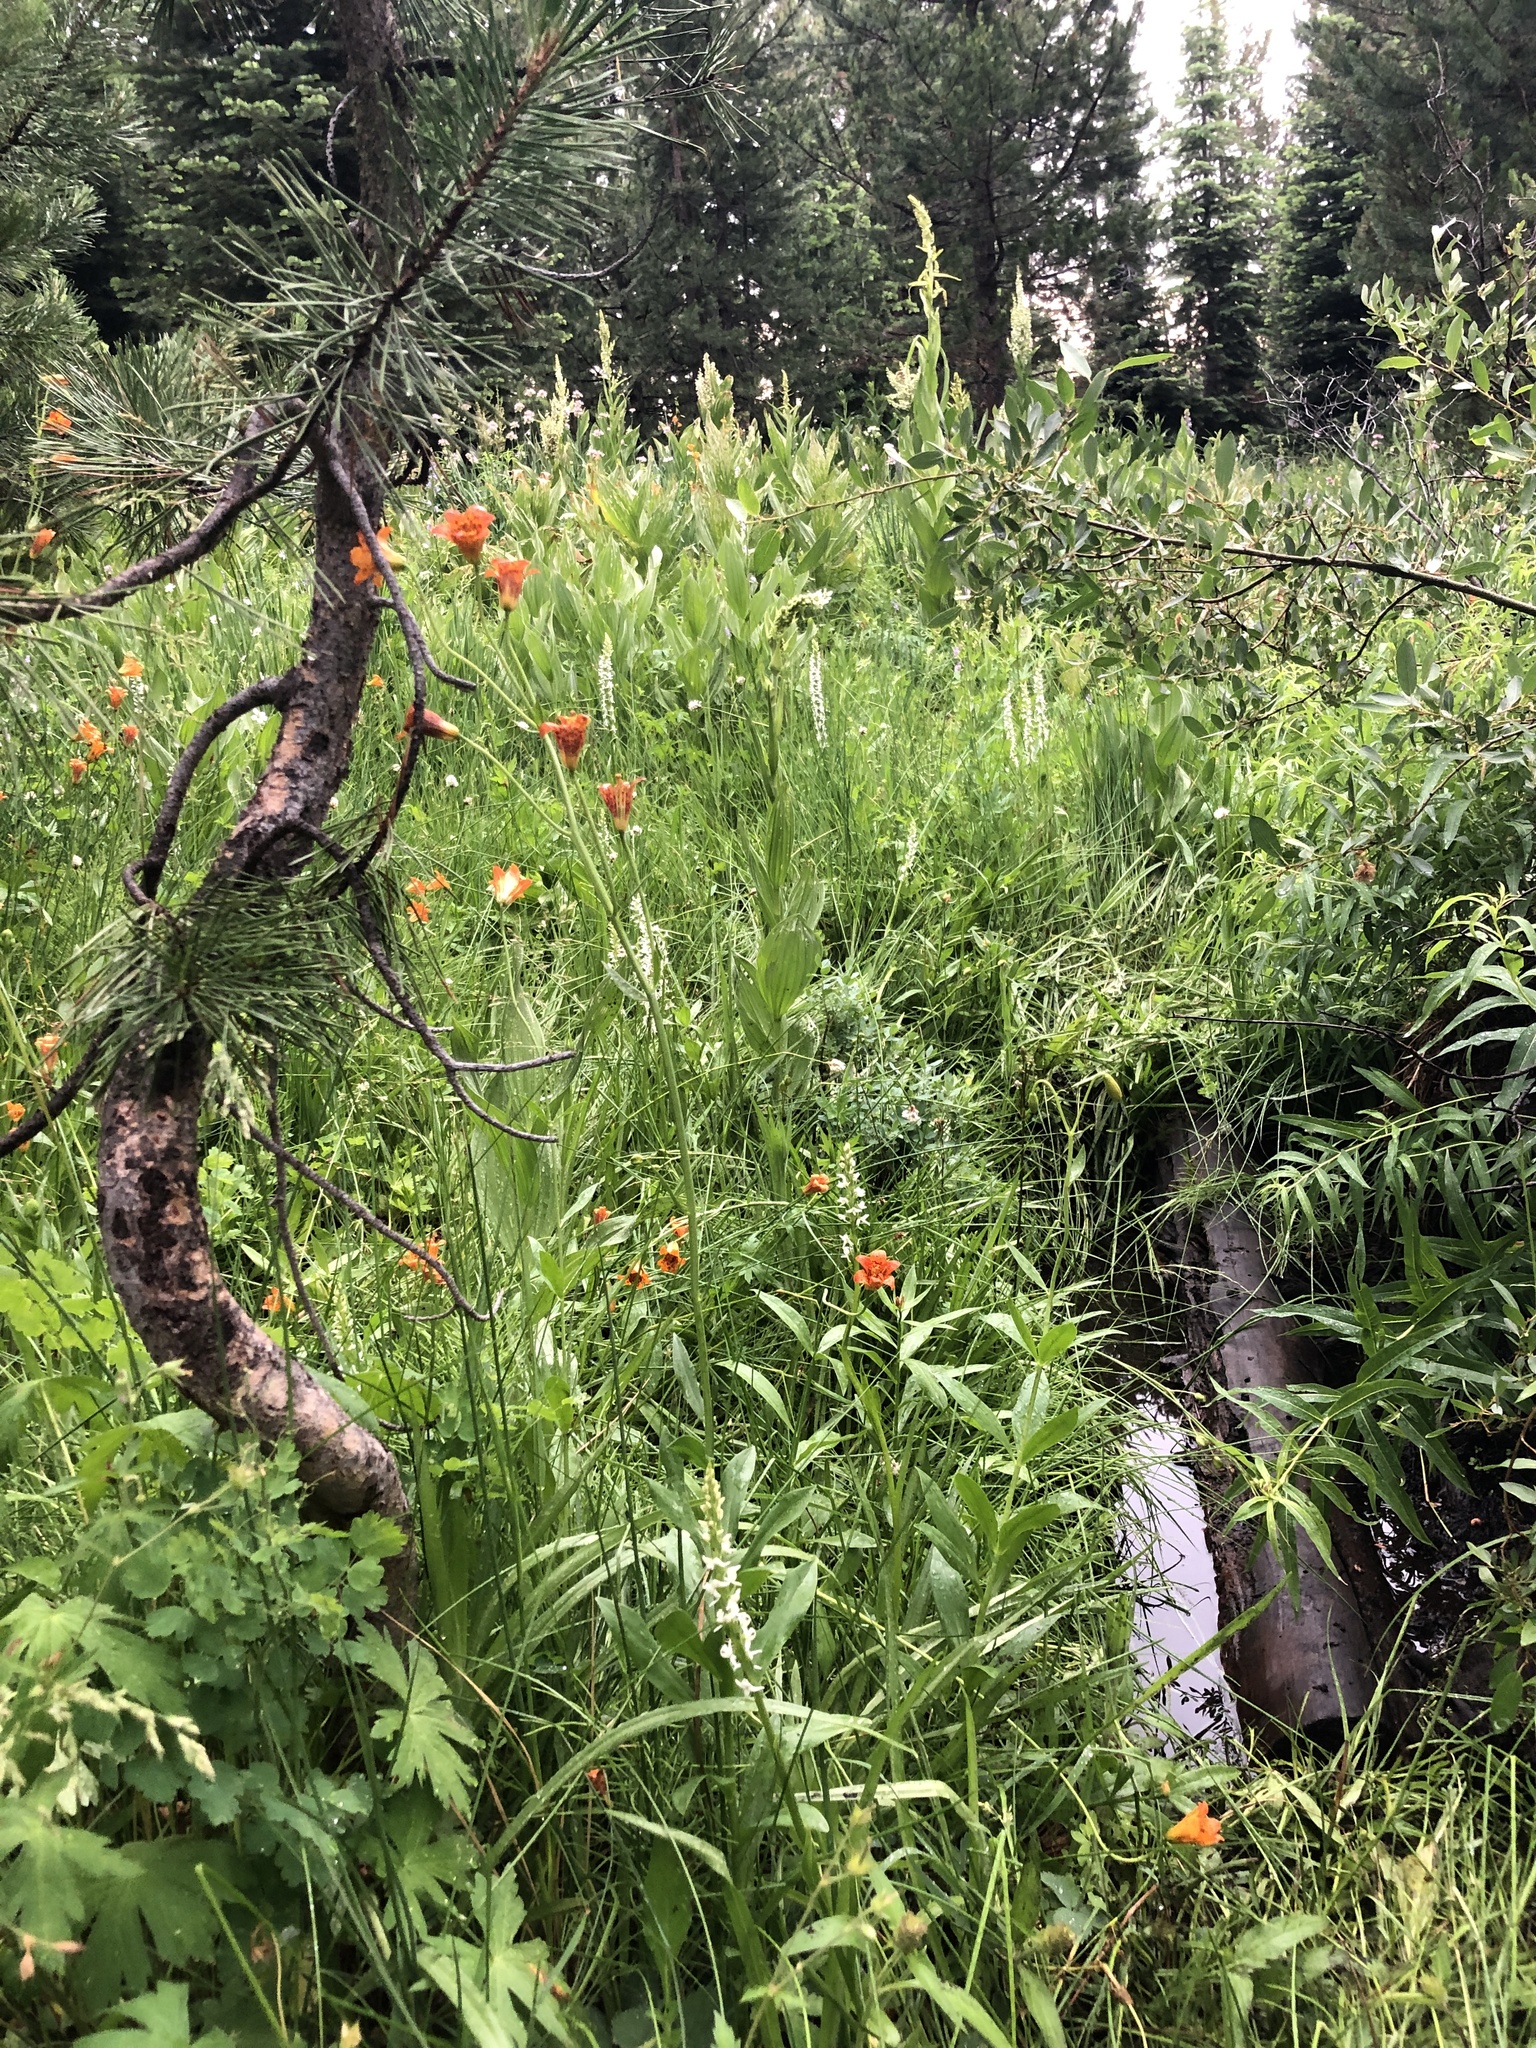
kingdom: Plantae
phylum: Tracheophyta
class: Liliopsida
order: Liliales
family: Liliaceae
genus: Lilium
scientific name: Lilium parvum
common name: Alpine lily
